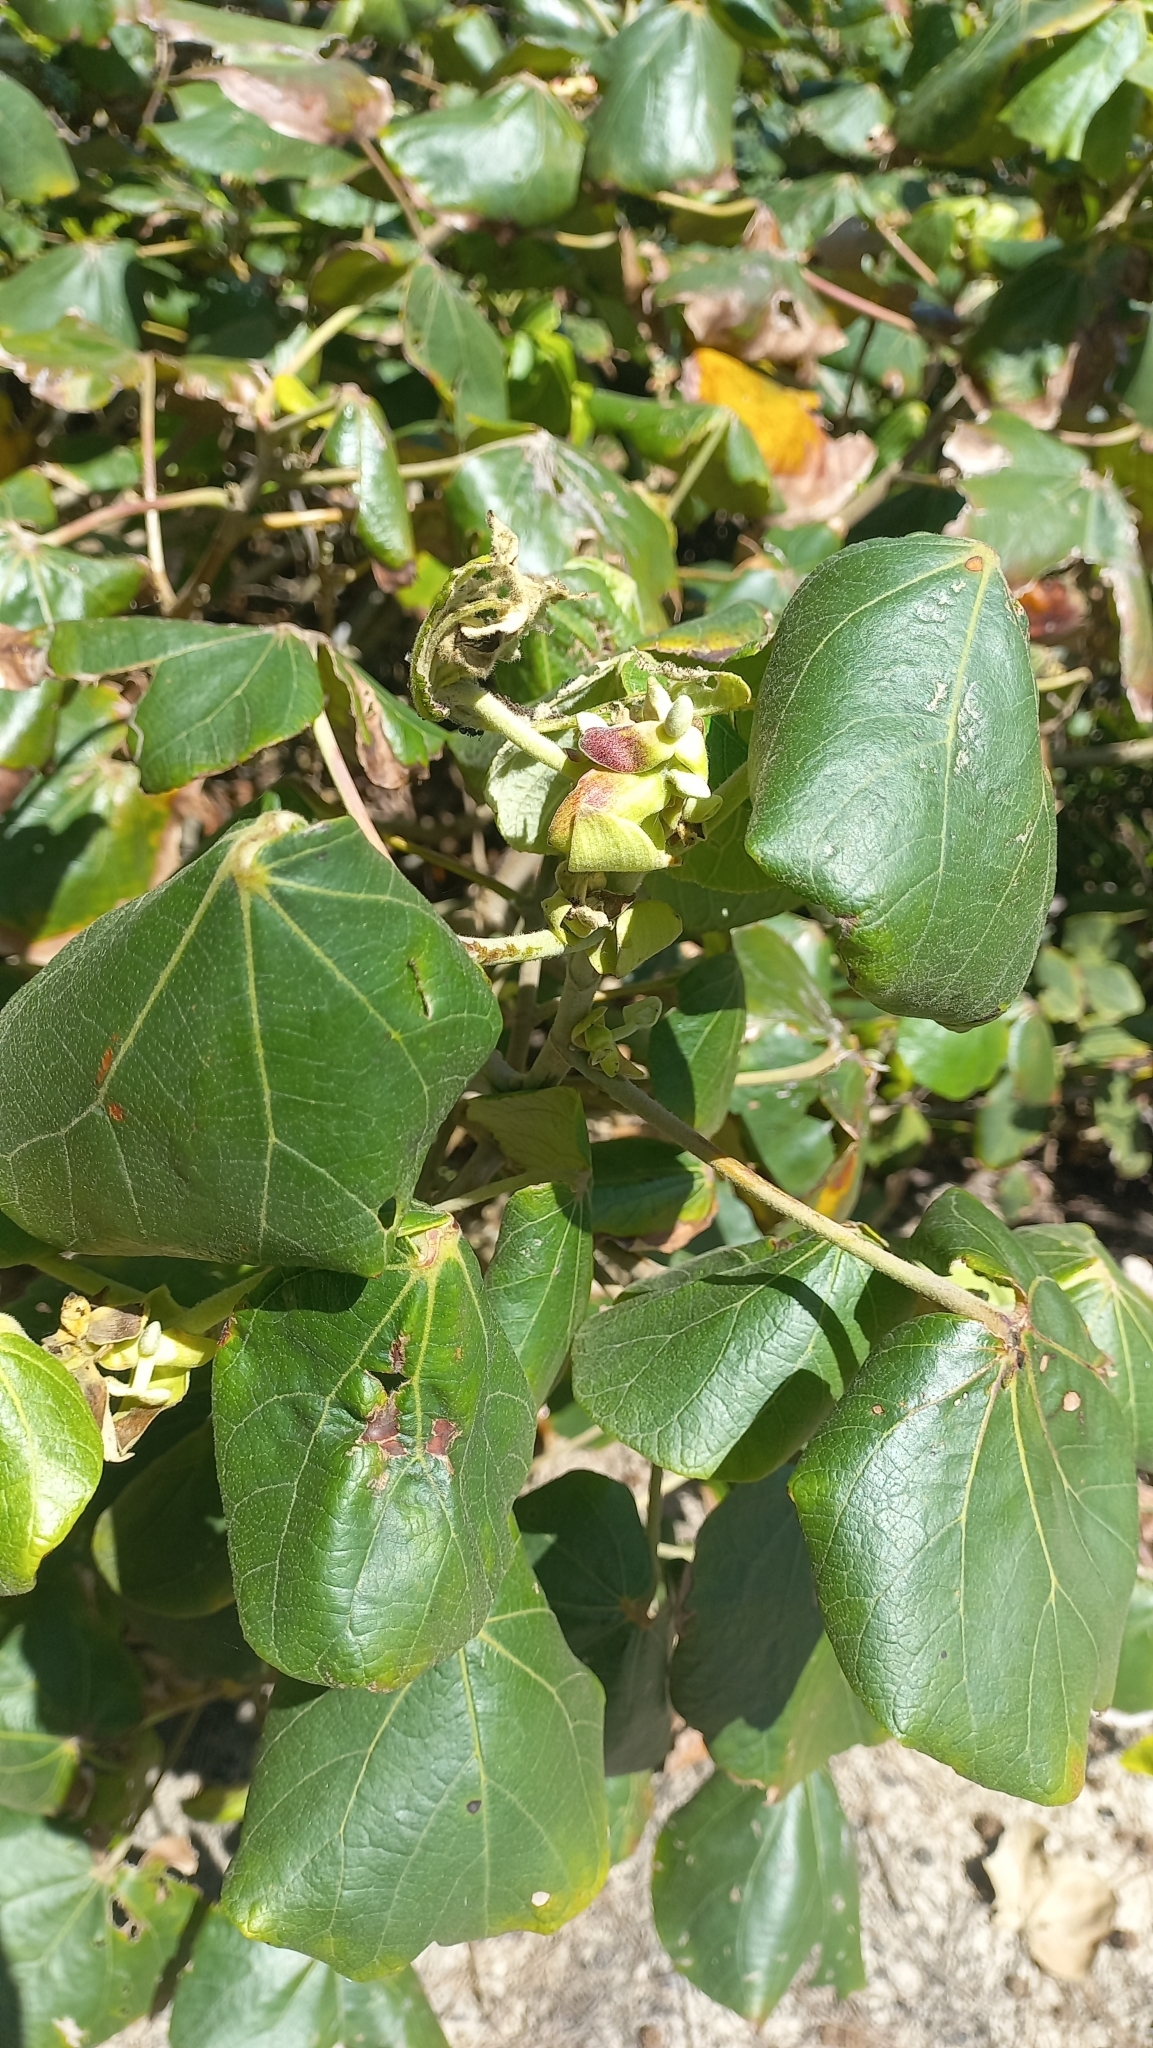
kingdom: Plantae
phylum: Tracheophyta
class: Magnoliopsida
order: Malvales
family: Malvaceae
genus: Talipariti
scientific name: Talipariti pernambucense
